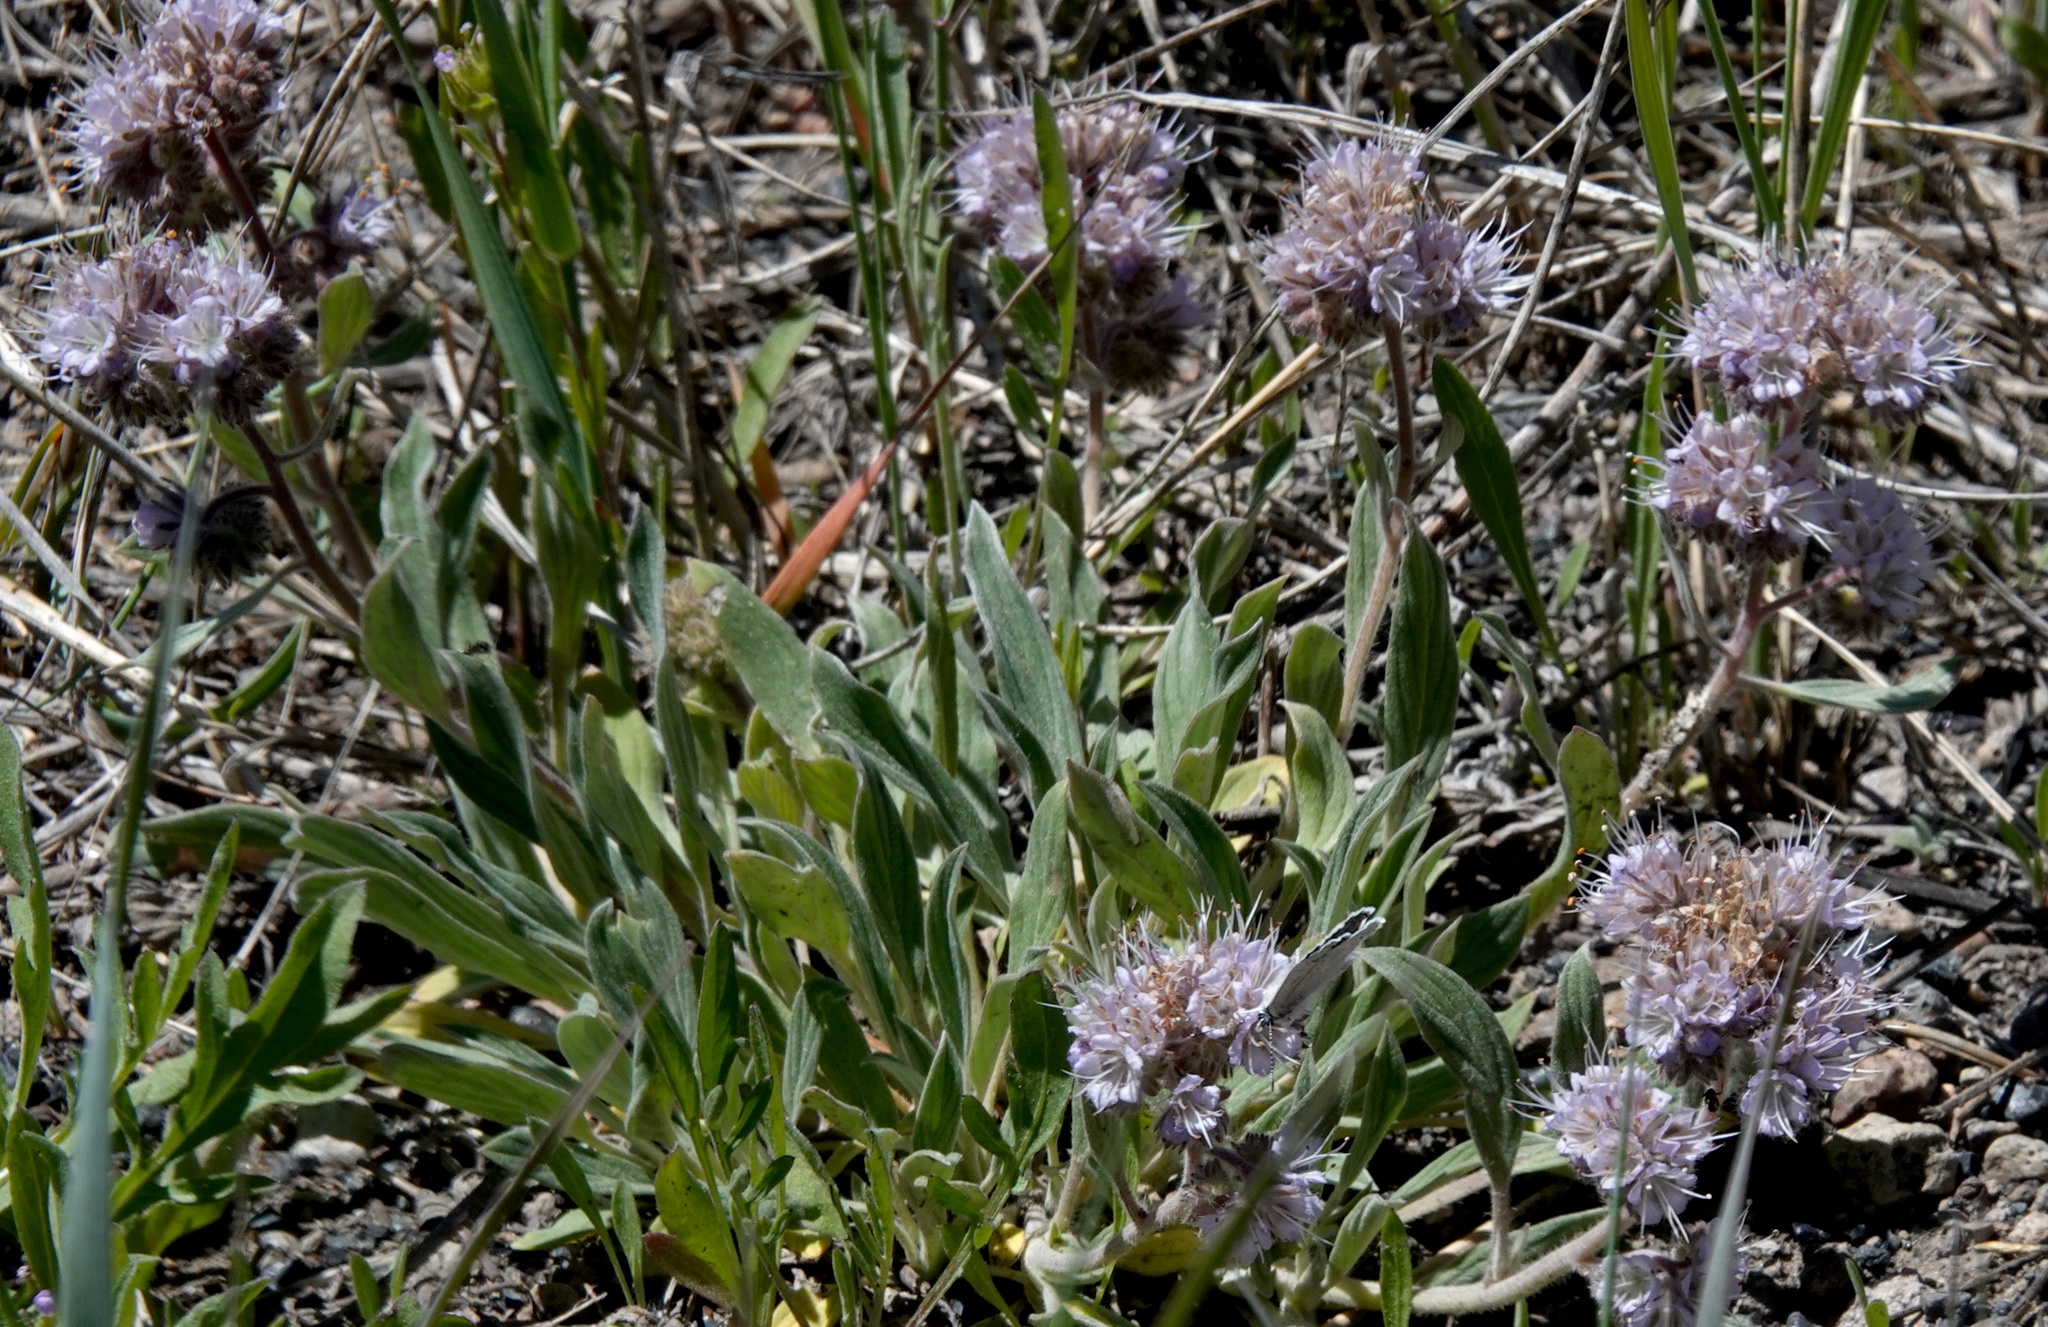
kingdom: Plantae
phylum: Tracheophyta
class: Magnoliopsida
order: Boraginales
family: Hydrophyllaceae
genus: Phacelia
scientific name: Phacelia hastata
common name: Silver-leaved phacelia
